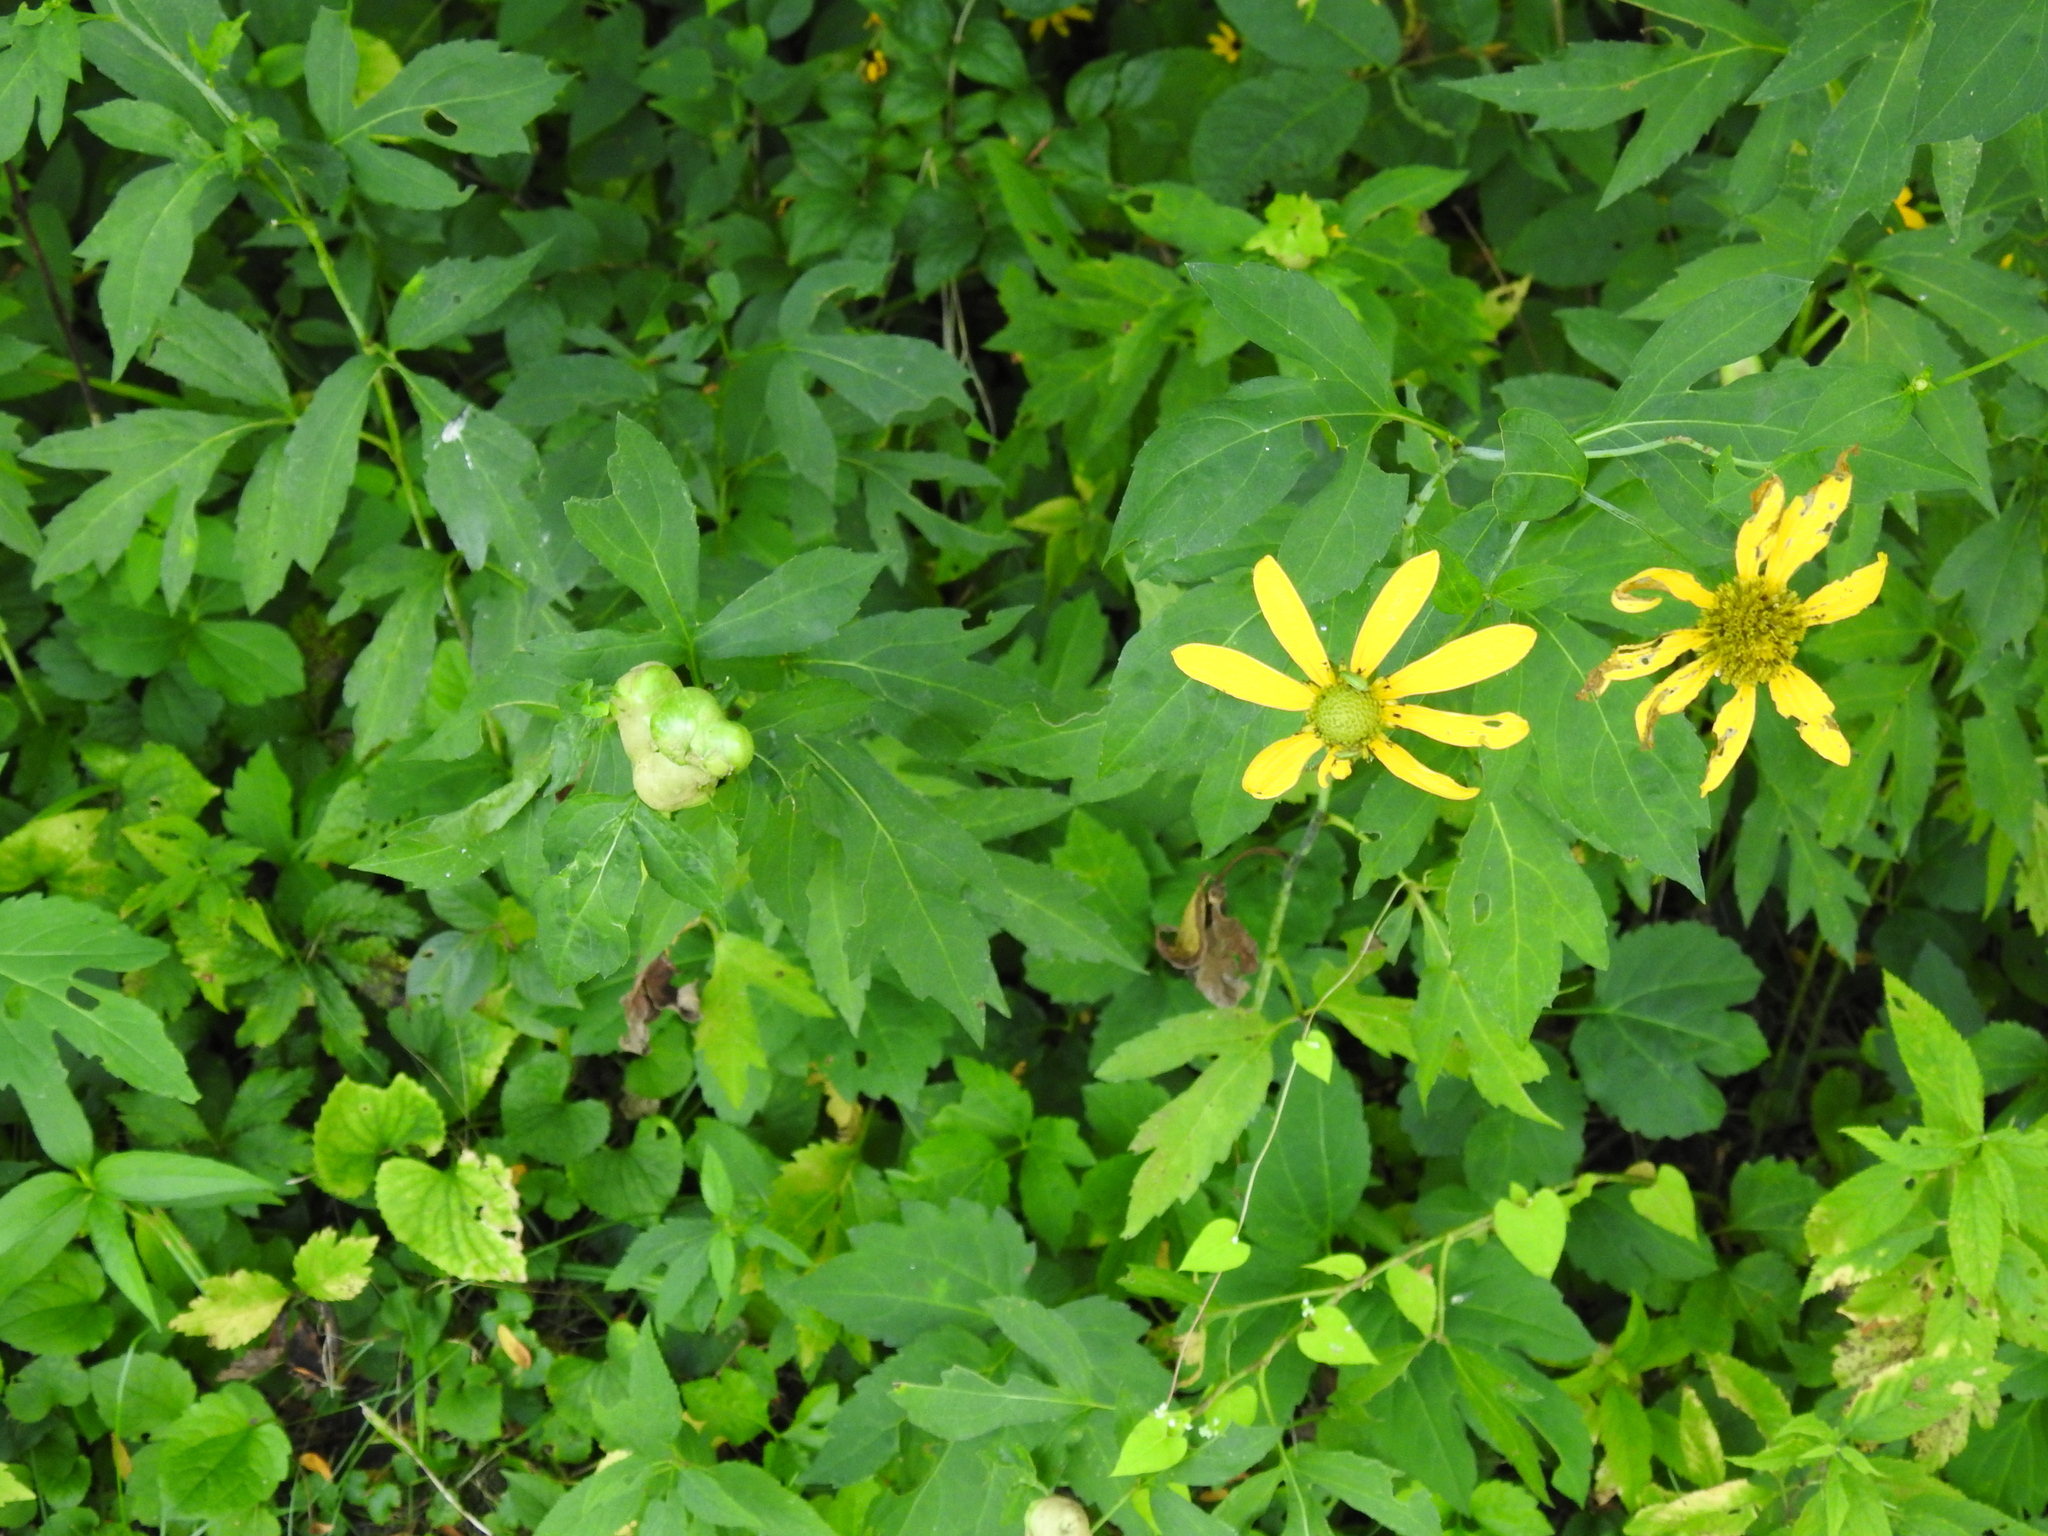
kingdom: Animalia
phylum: Arthropoda
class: Insecta
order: Diptera
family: Cecidomyiidae
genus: Asphondylia
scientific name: Asphondylia rudbeckiaeconspicua
